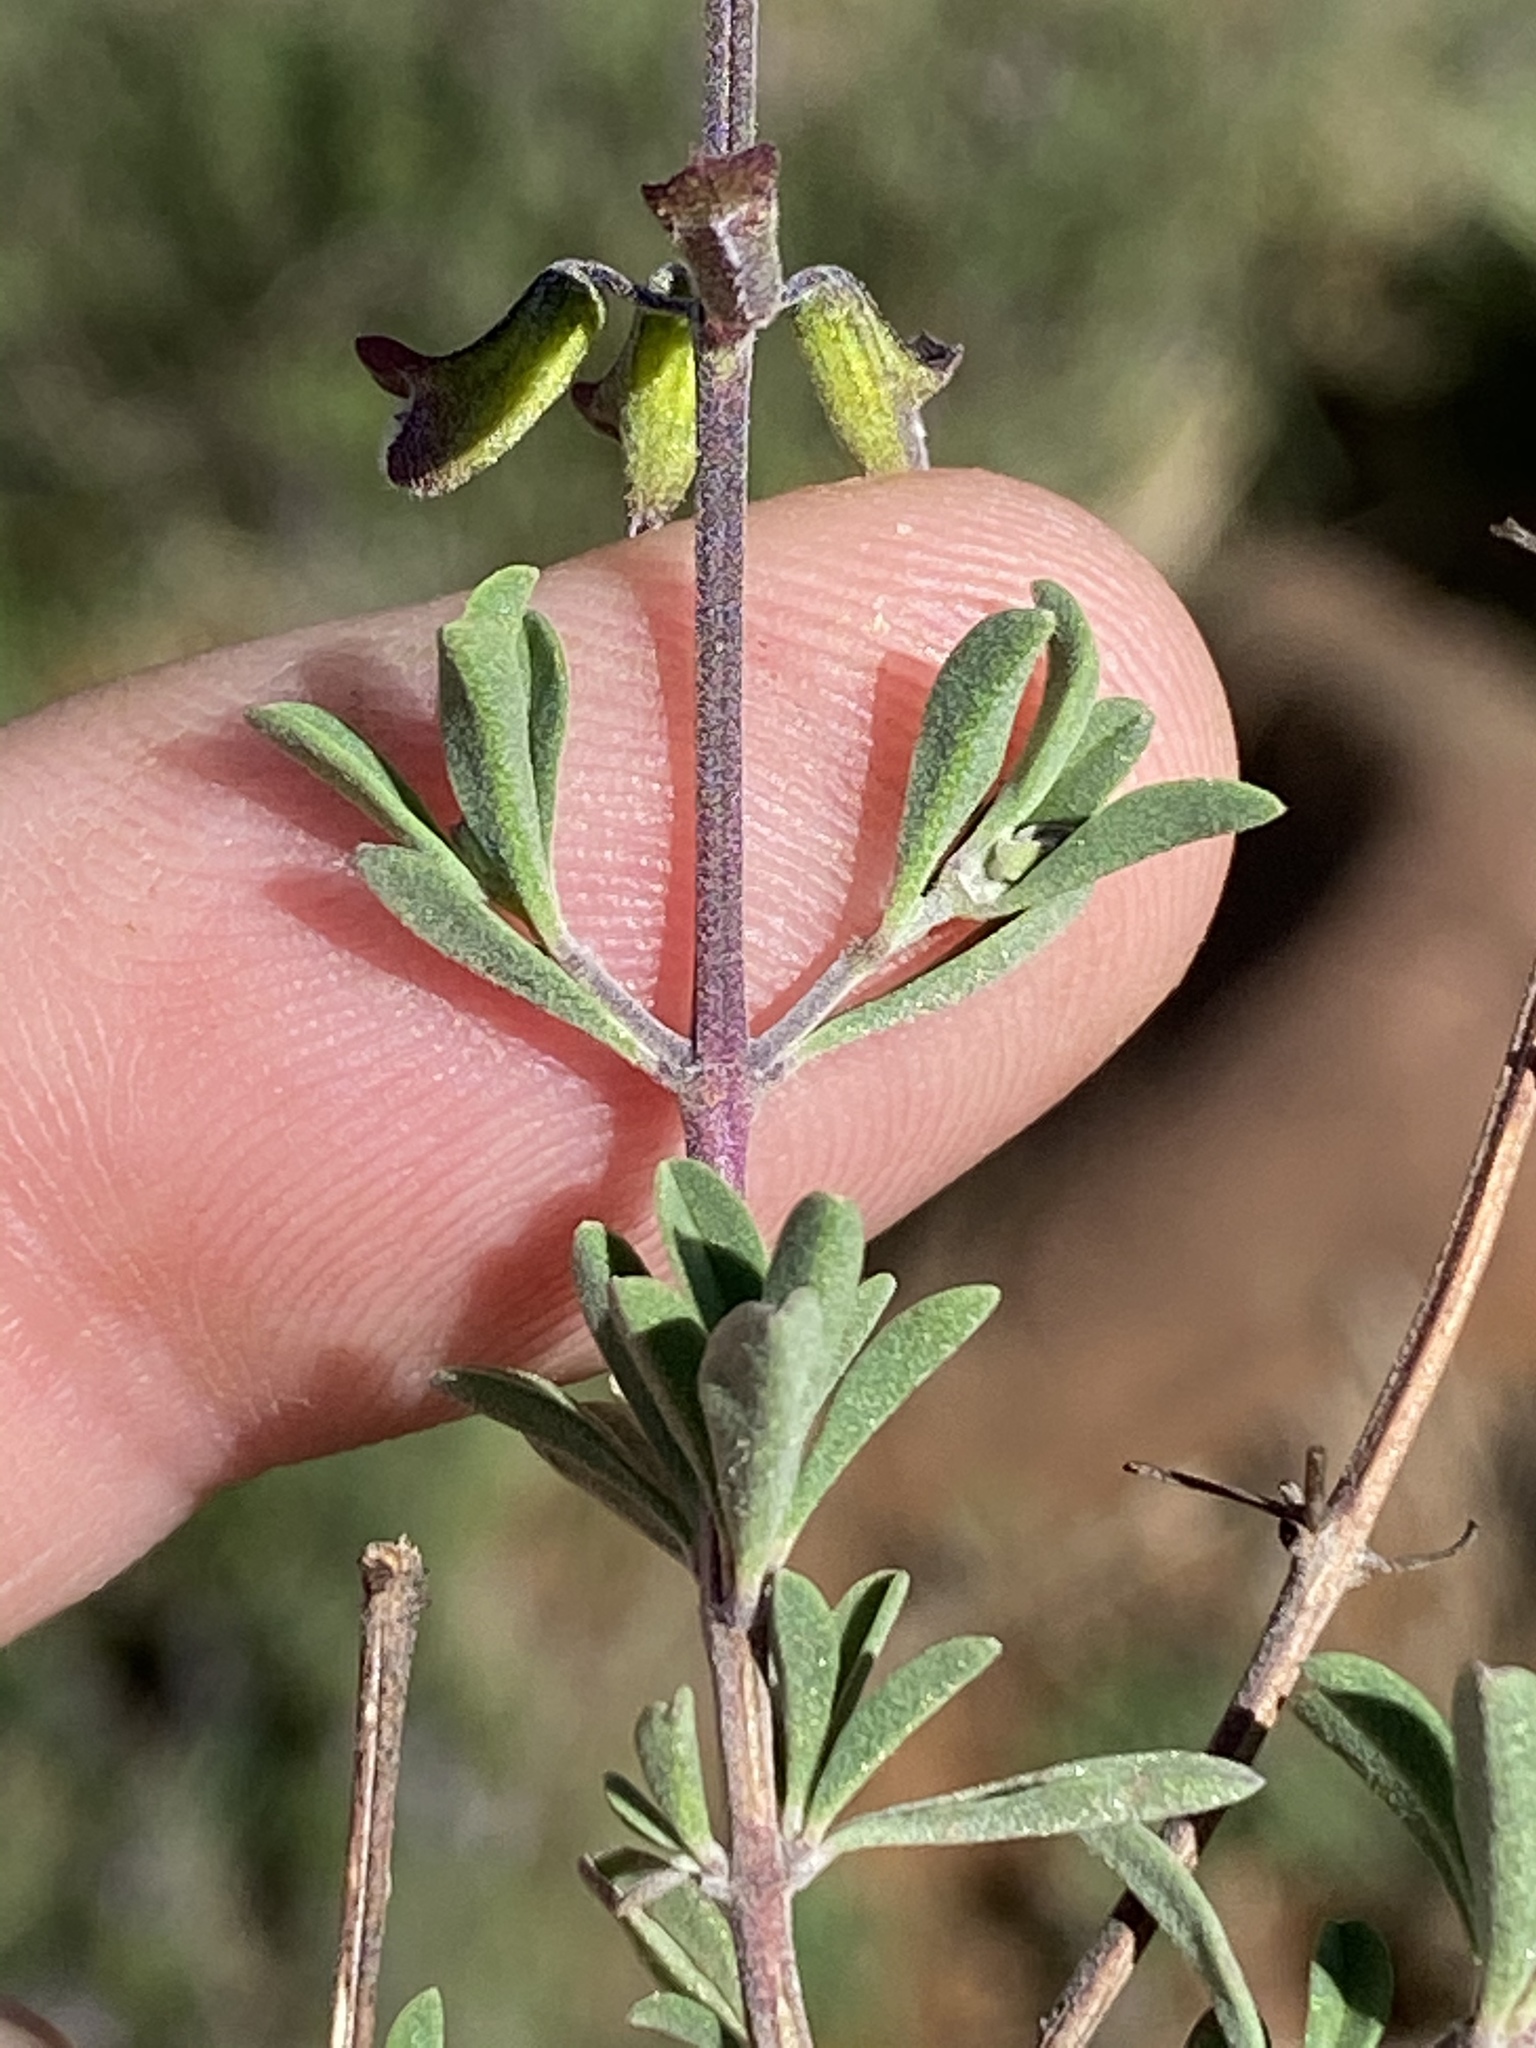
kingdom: Plantae
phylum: Tracheophyta
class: Magnoliopsida
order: Lamiales
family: Lamiaceae
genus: Ocimum
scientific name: Ocimum burchellianum
